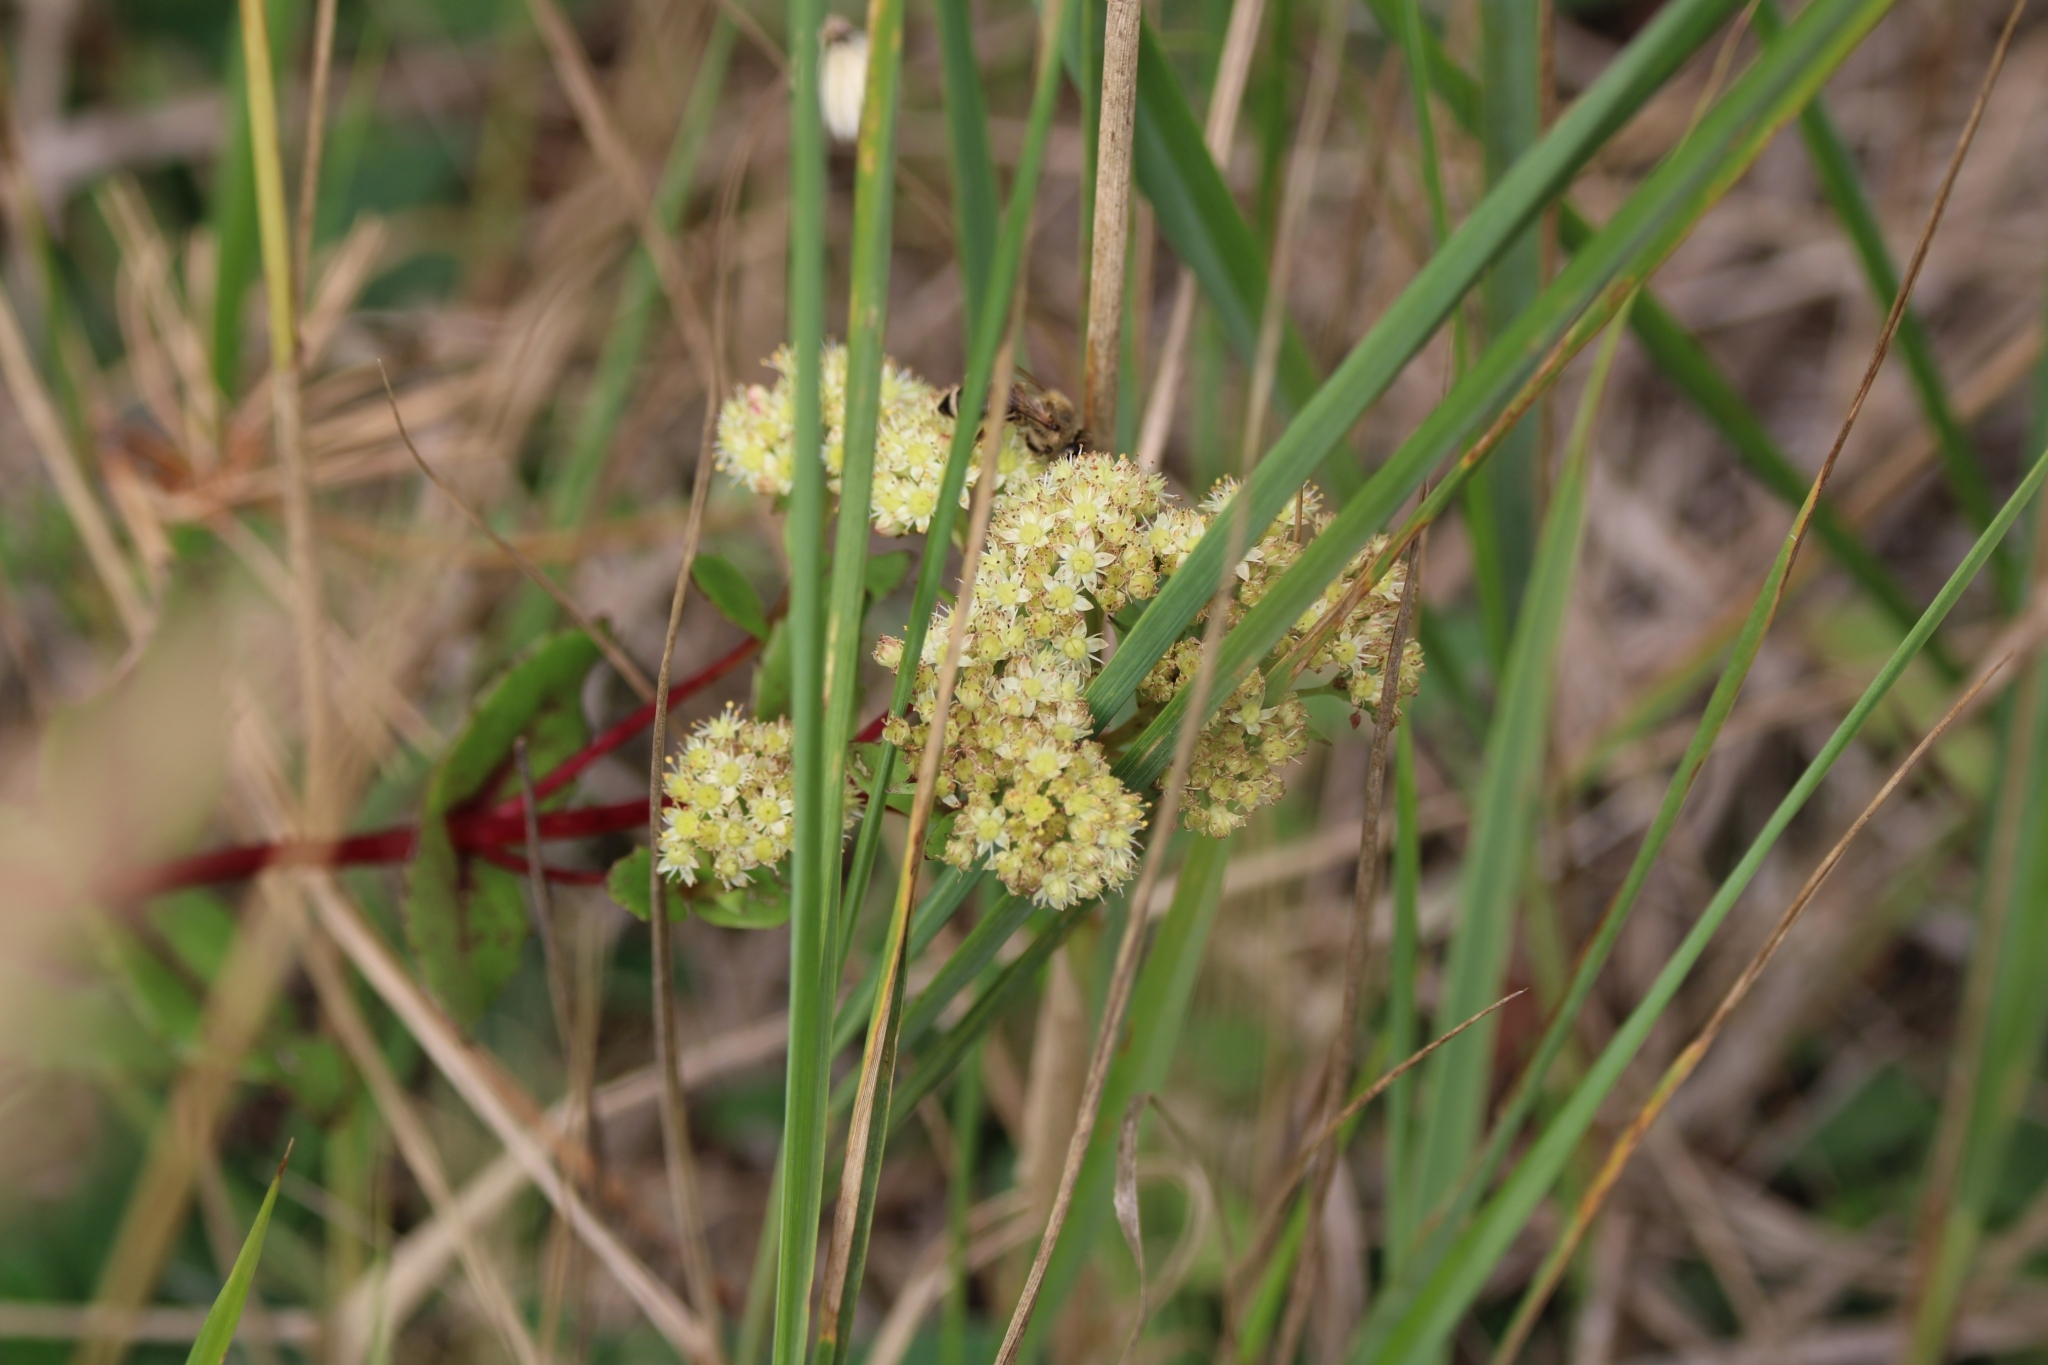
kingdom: Plantae
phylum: Tracheophyta
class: Magnoliopsida
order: Saxifragales
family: Crassulaceae
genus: Hylotelephium
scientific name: Hylotelephium maximum
